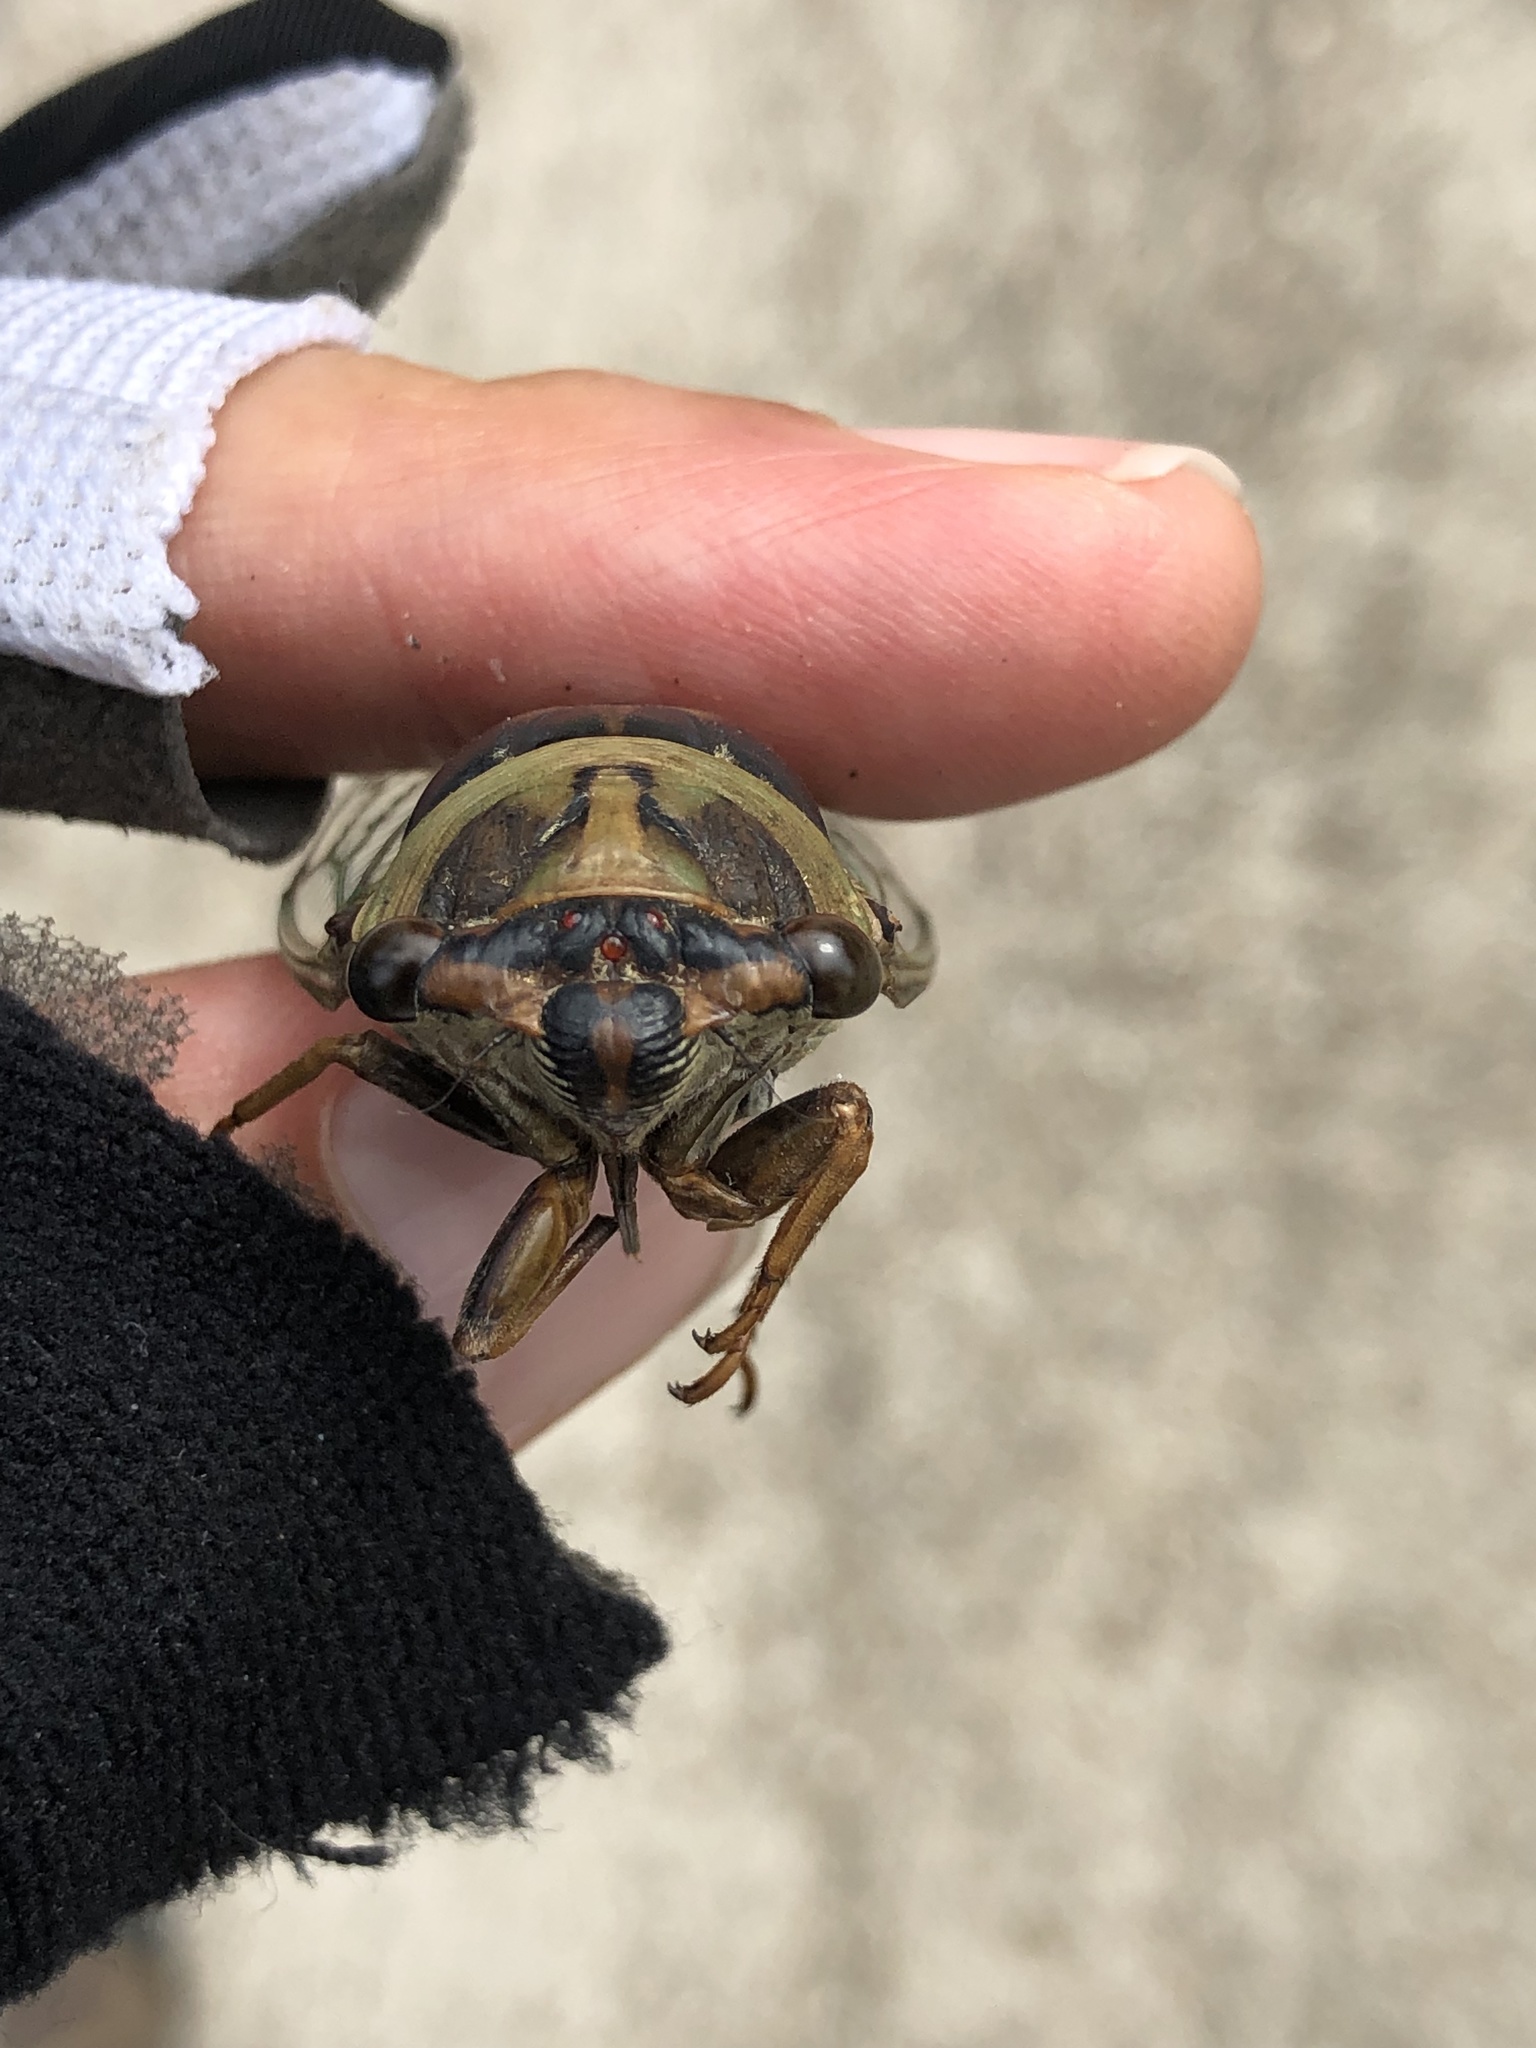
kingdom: Animalia
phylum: Arthropoda
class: Insecta
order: Hemiptera
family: Cicadidae
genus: Megatibicen
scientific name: Megatibicen resh
